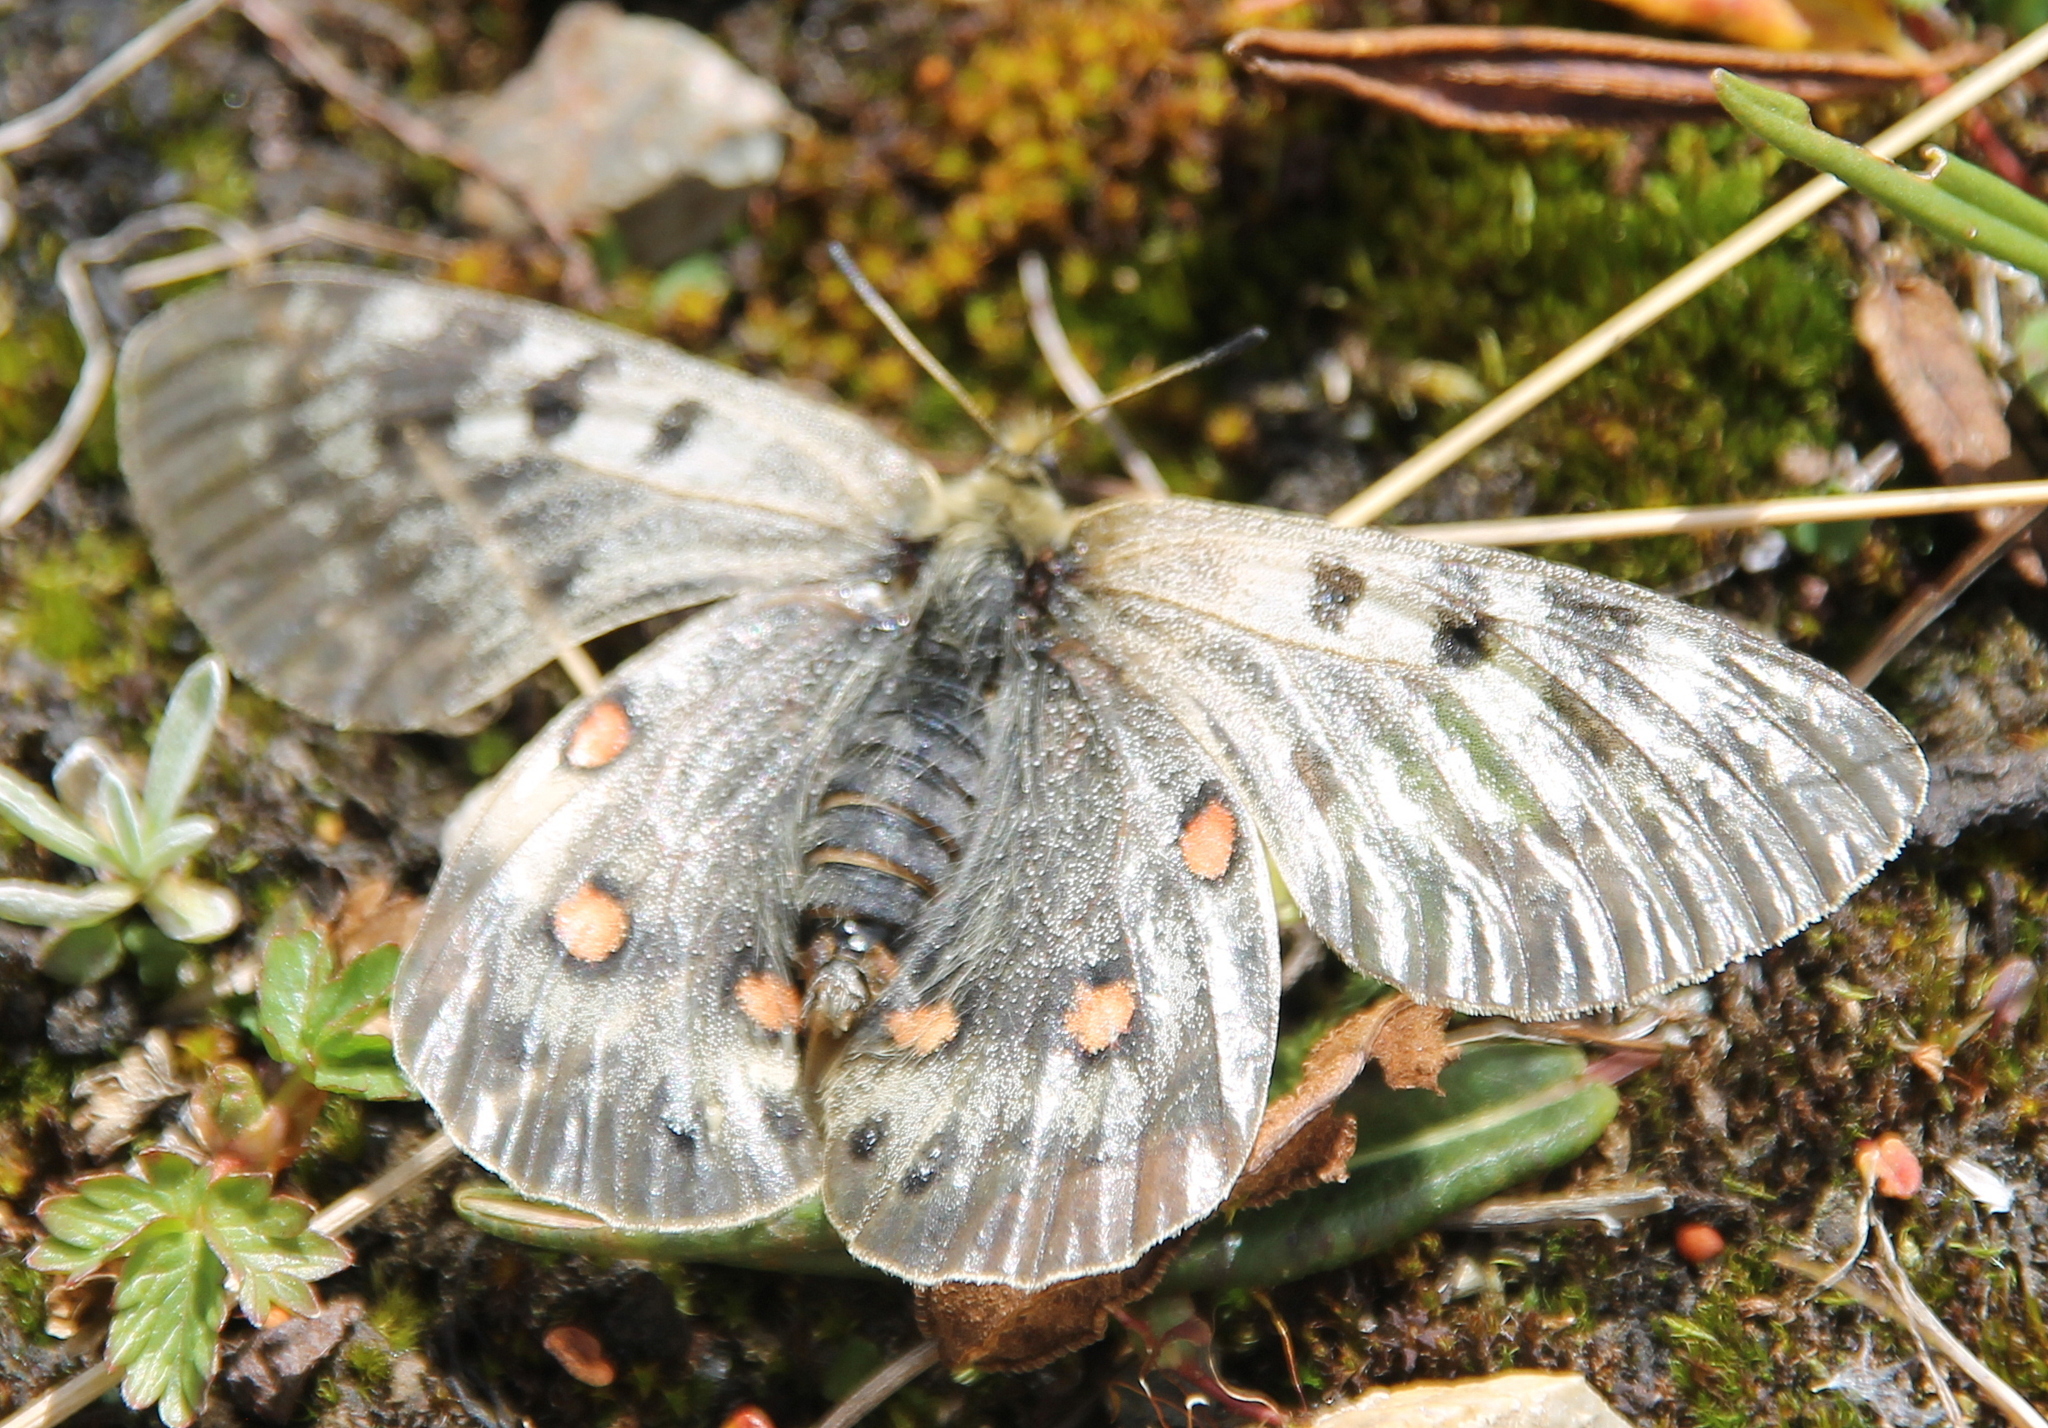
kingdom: Animalia
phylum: Arthropoda
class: Insecta
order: Lepidoptera
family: Papilionidae
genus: Parnassius
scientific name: Parnassius delphius
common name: Banded apollo
